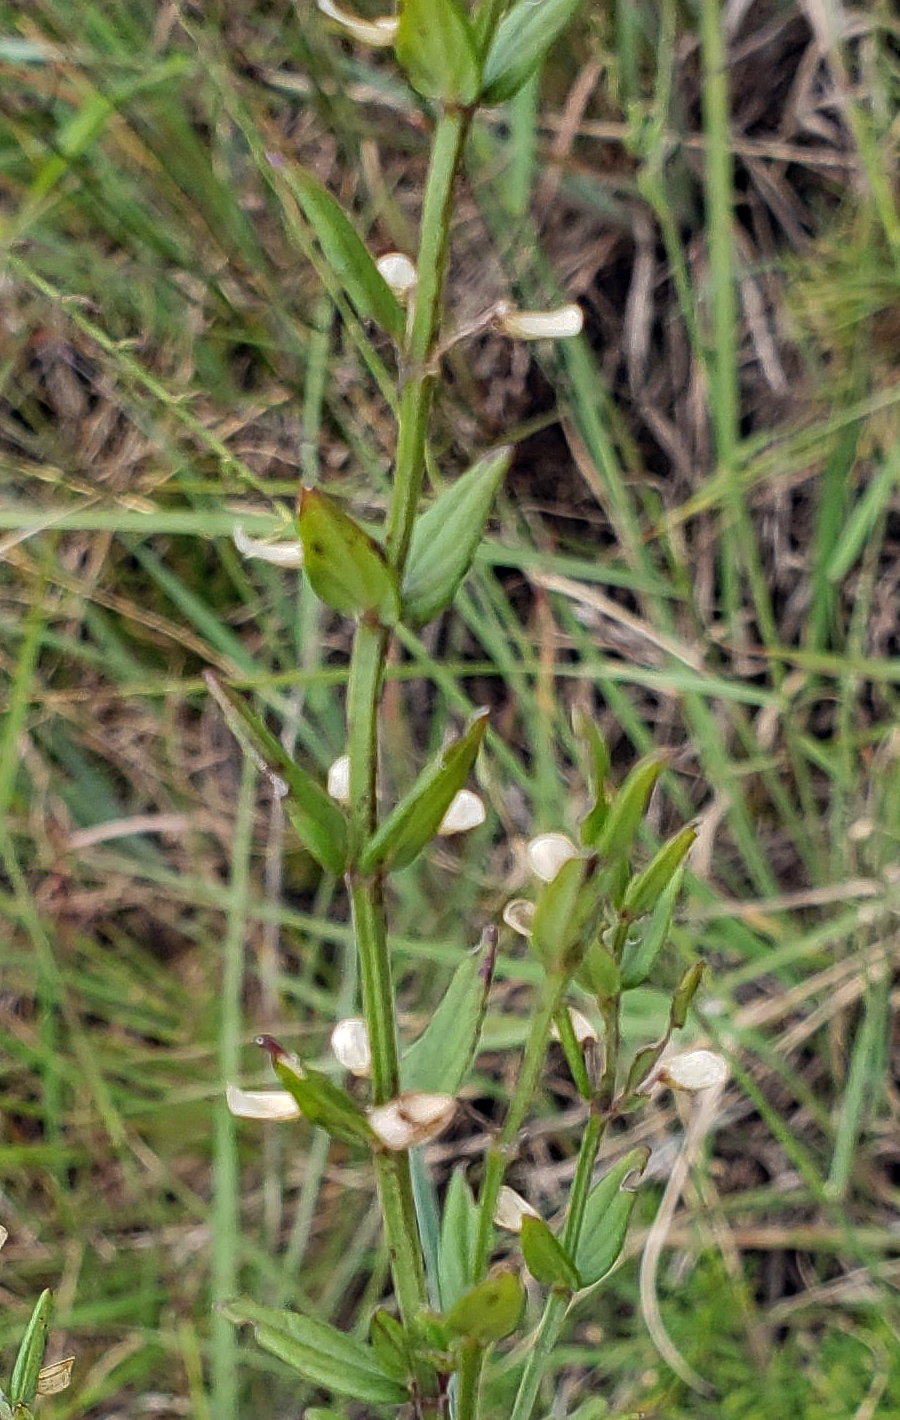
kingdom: Plantae
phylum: Tracheophyta
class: Magnoliopsida
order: Lamiales
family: Lamiaceae
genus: Scutellaria
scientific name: Scutellaria parvula
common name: Little scullcap
